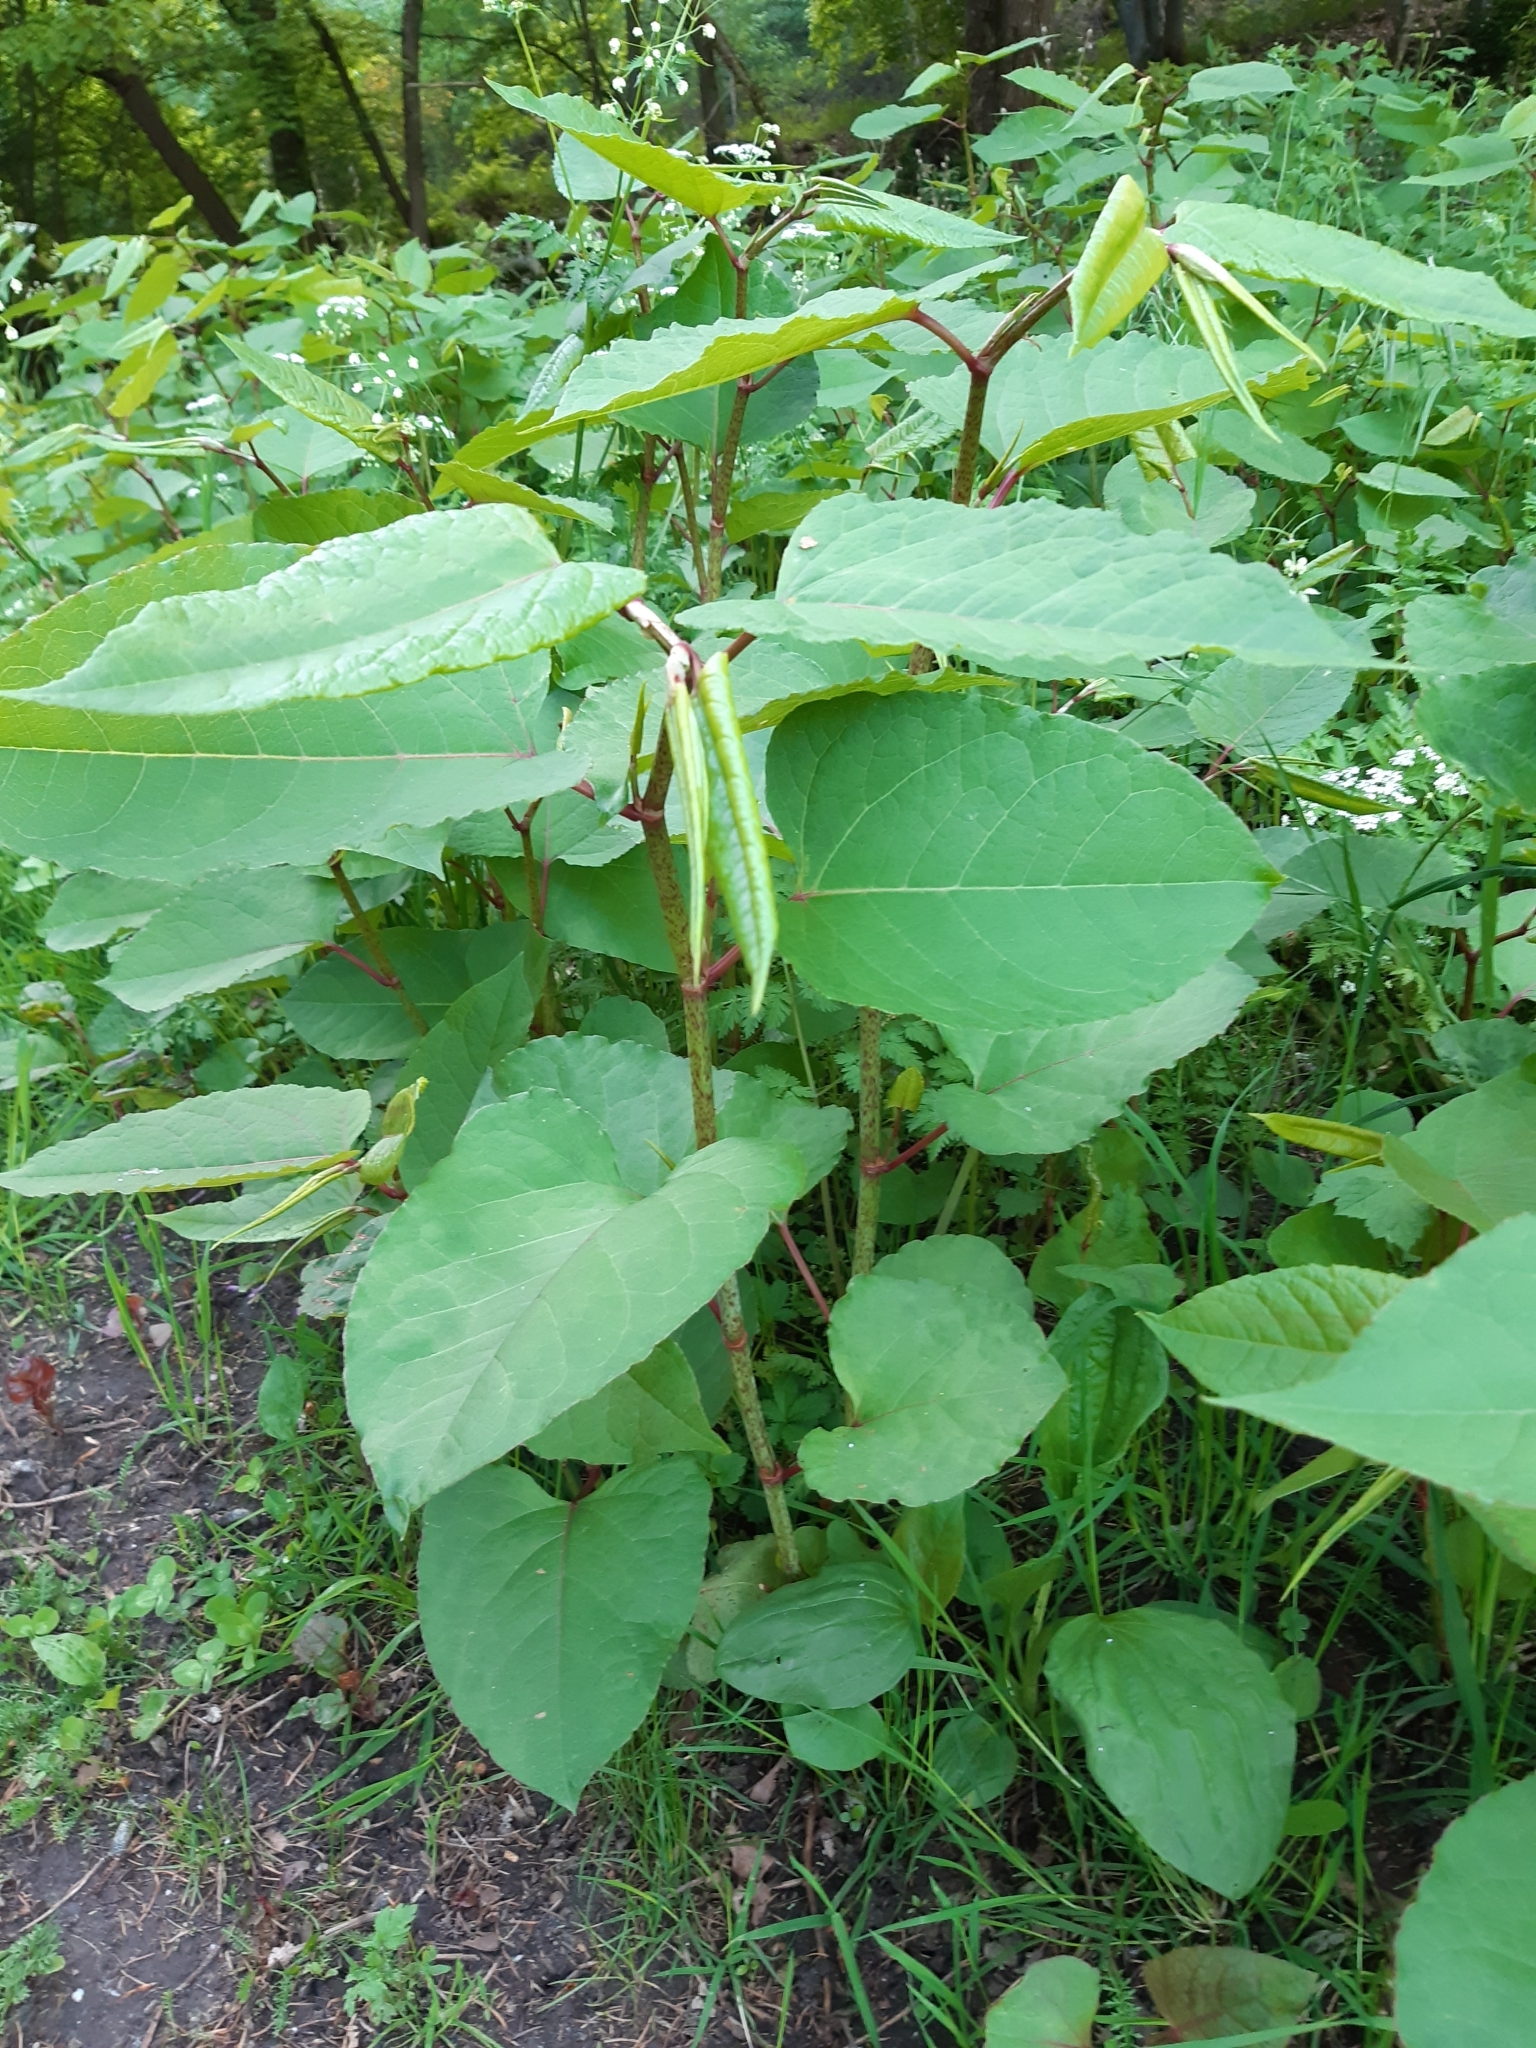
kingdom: Plantae
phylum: Tracheophyta
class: Magnoliopsida
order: Caryophyllales
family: Polygonaceae
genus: Reynoutria
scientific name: Reynoutria bohemica
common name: Bohemian knotweed
